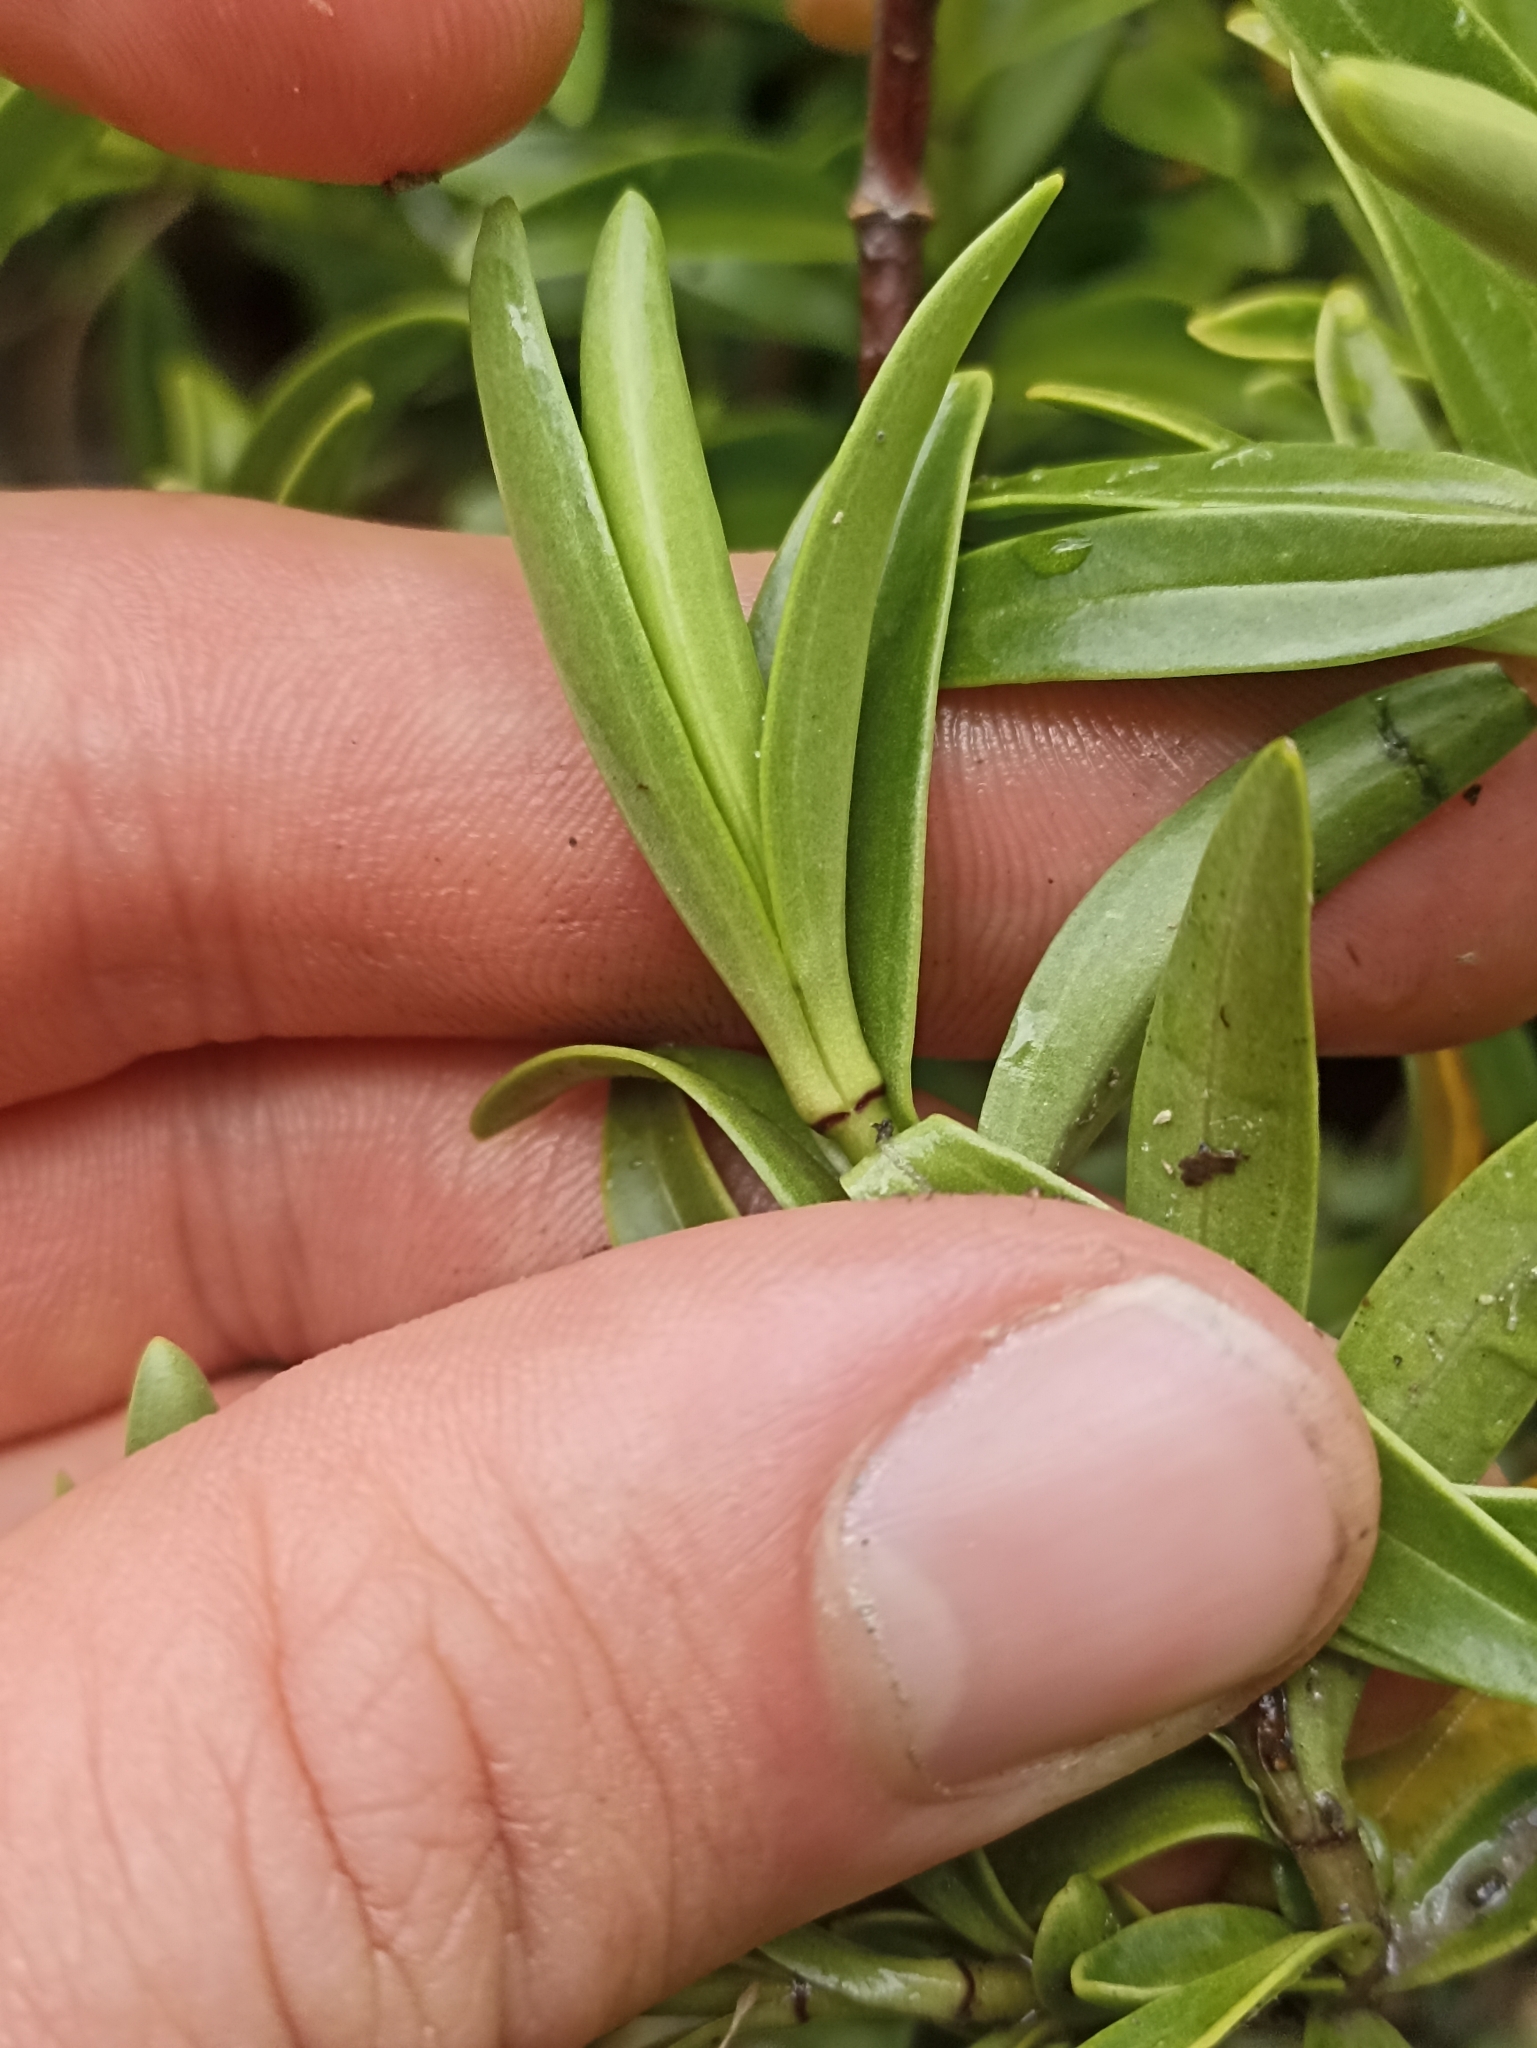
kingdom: Plantae
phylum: Tracheophyta
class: Magnoliopsida
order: Lamiales
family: Plantaginaceae
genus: Veronica
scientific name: Veronica subalpina
